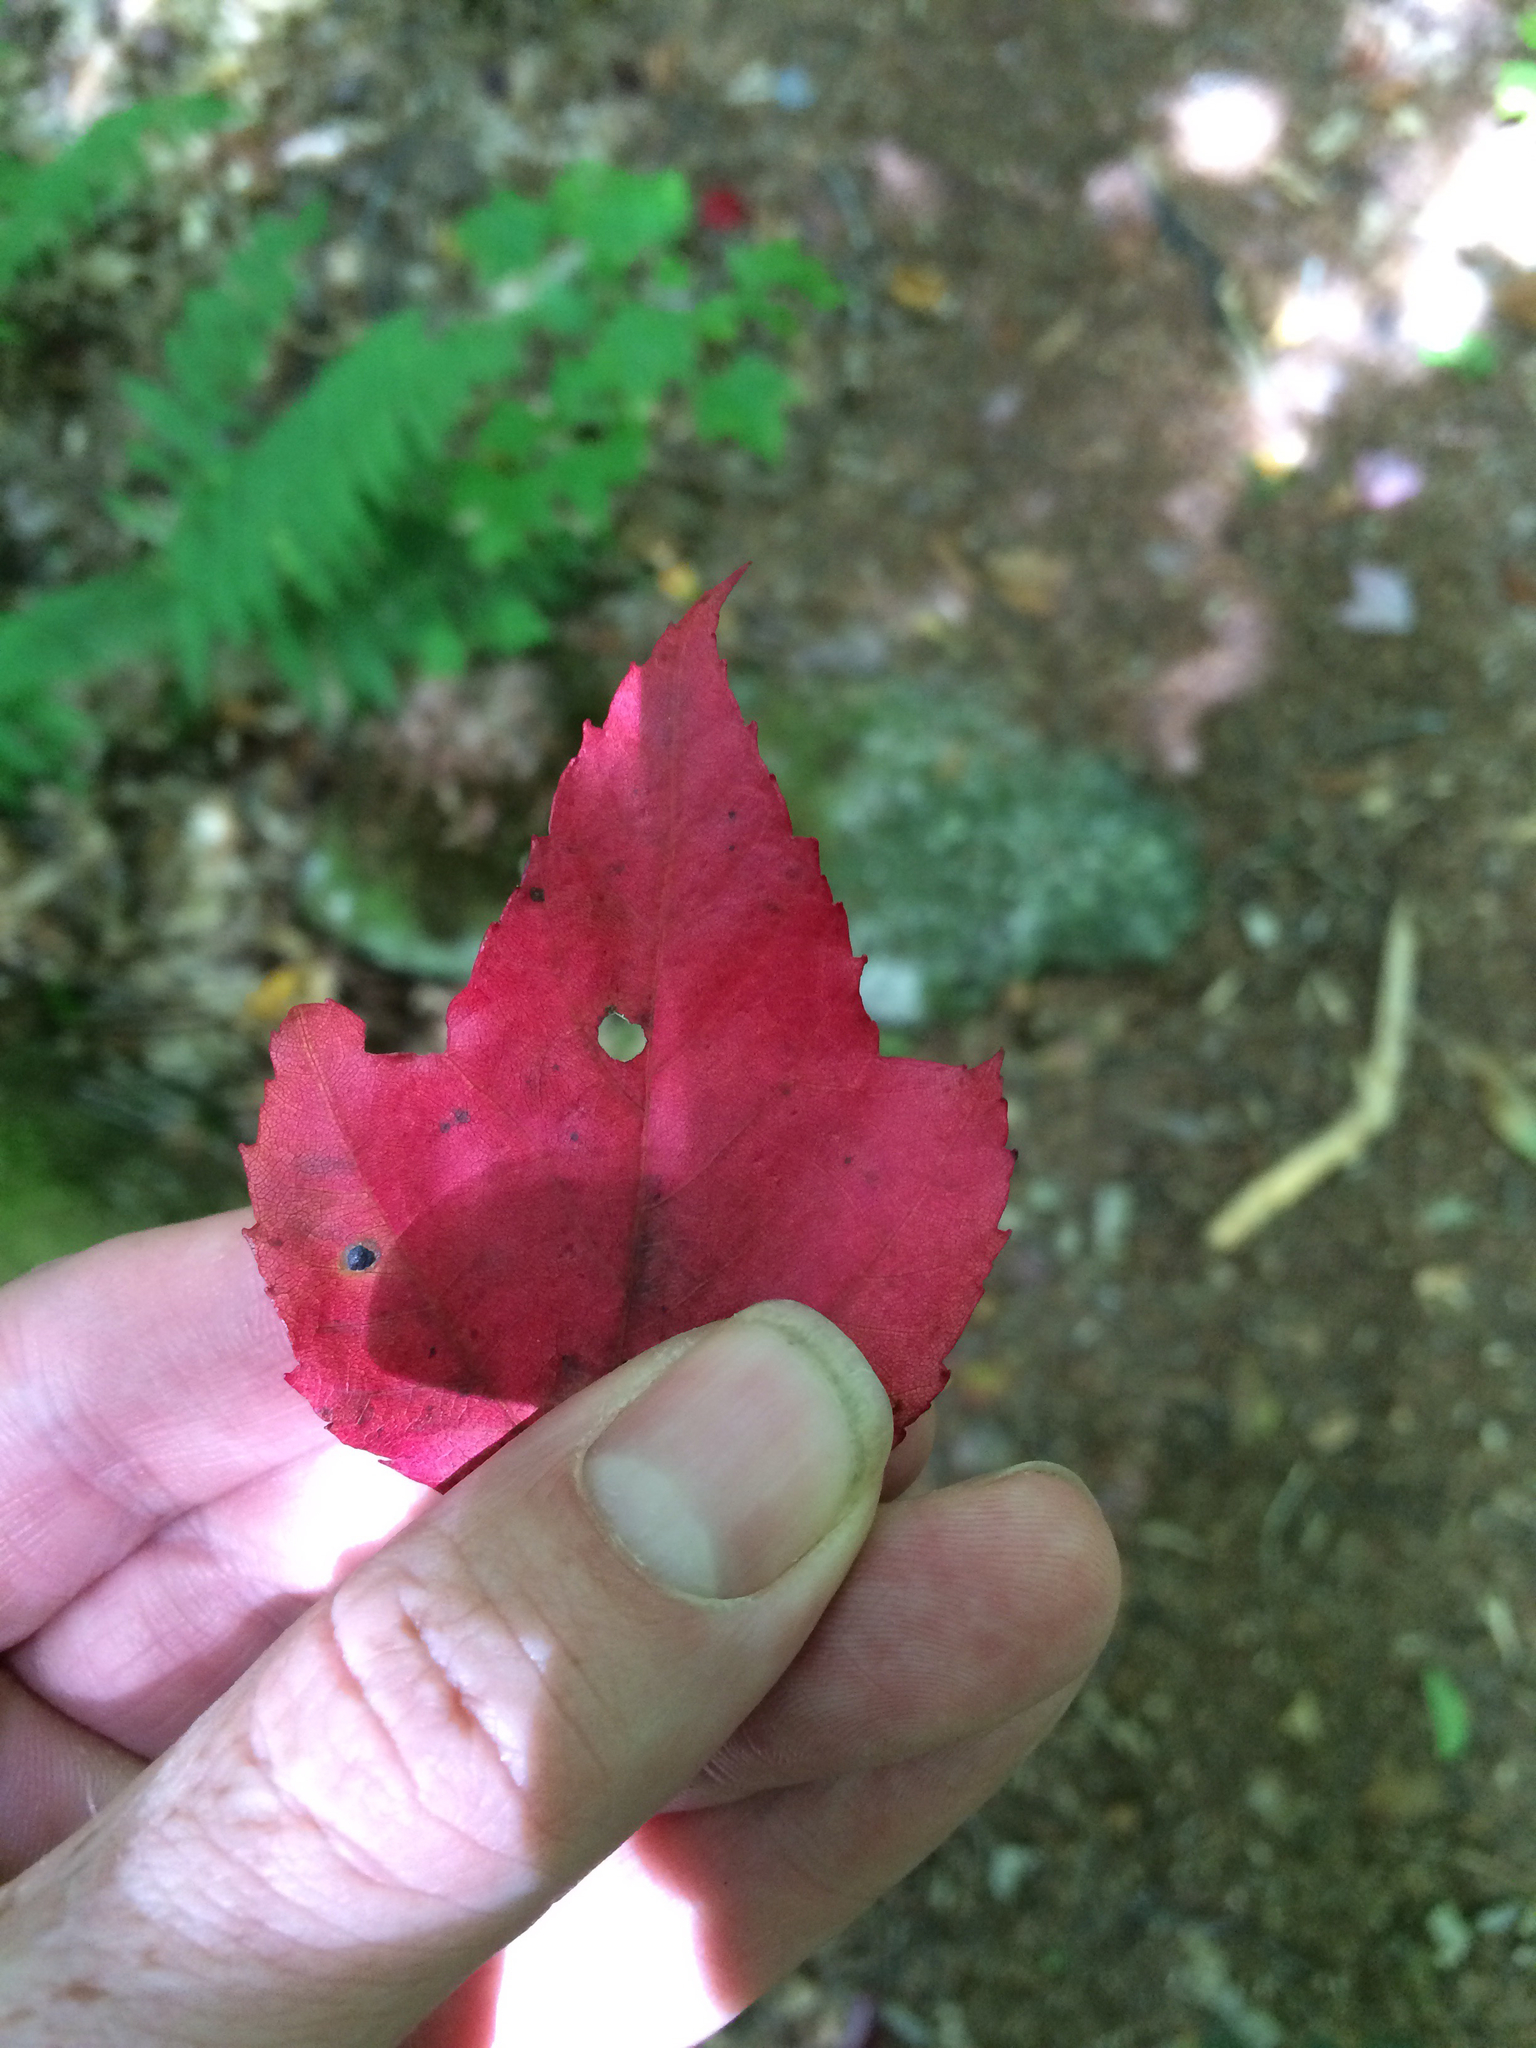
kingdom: Plantae
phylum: Tracheophyta
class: Magnoliopsida
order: Sapindales
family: Sapindaceae
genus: Acer
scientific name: Acer rubrum
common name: Red maple
